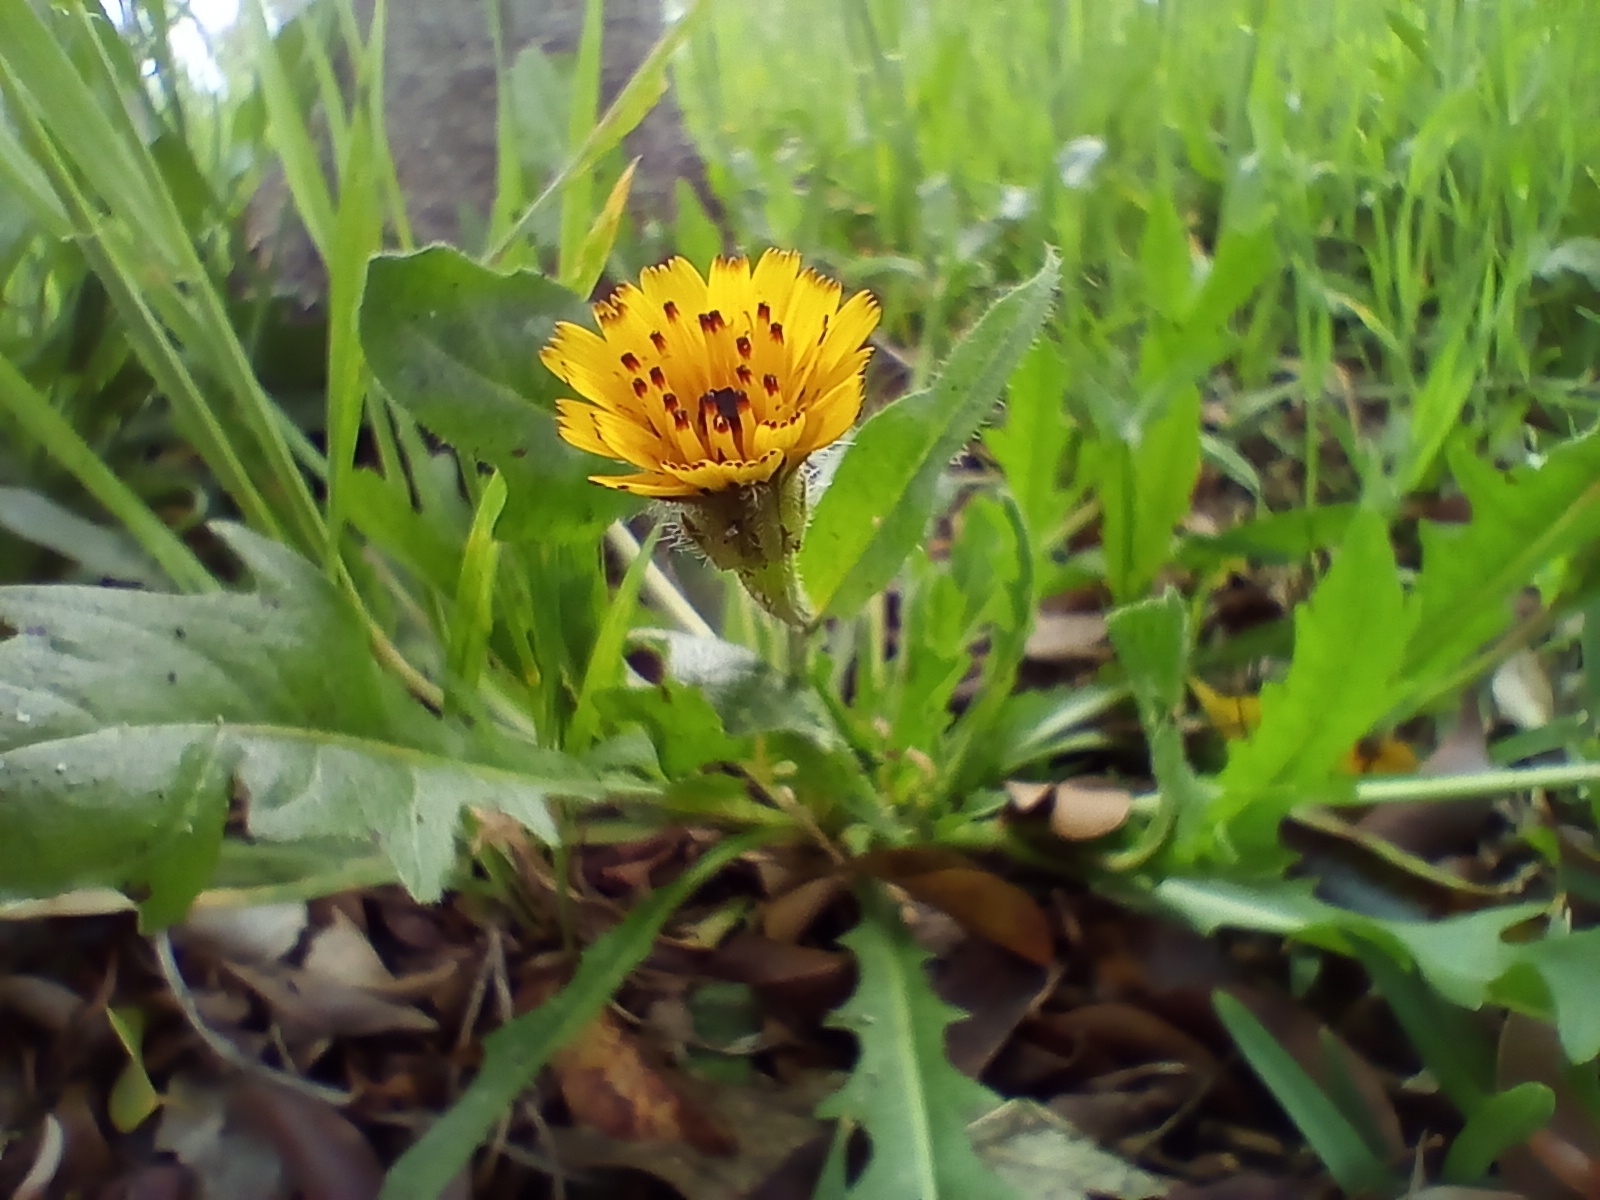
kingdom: Plantae
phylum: Tracheophyta
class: Magnoliopsida
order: Asterales
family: Asteraceae
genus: Hedypnois
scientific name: Hedypnois rhagadioloides
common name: Cretan weed
